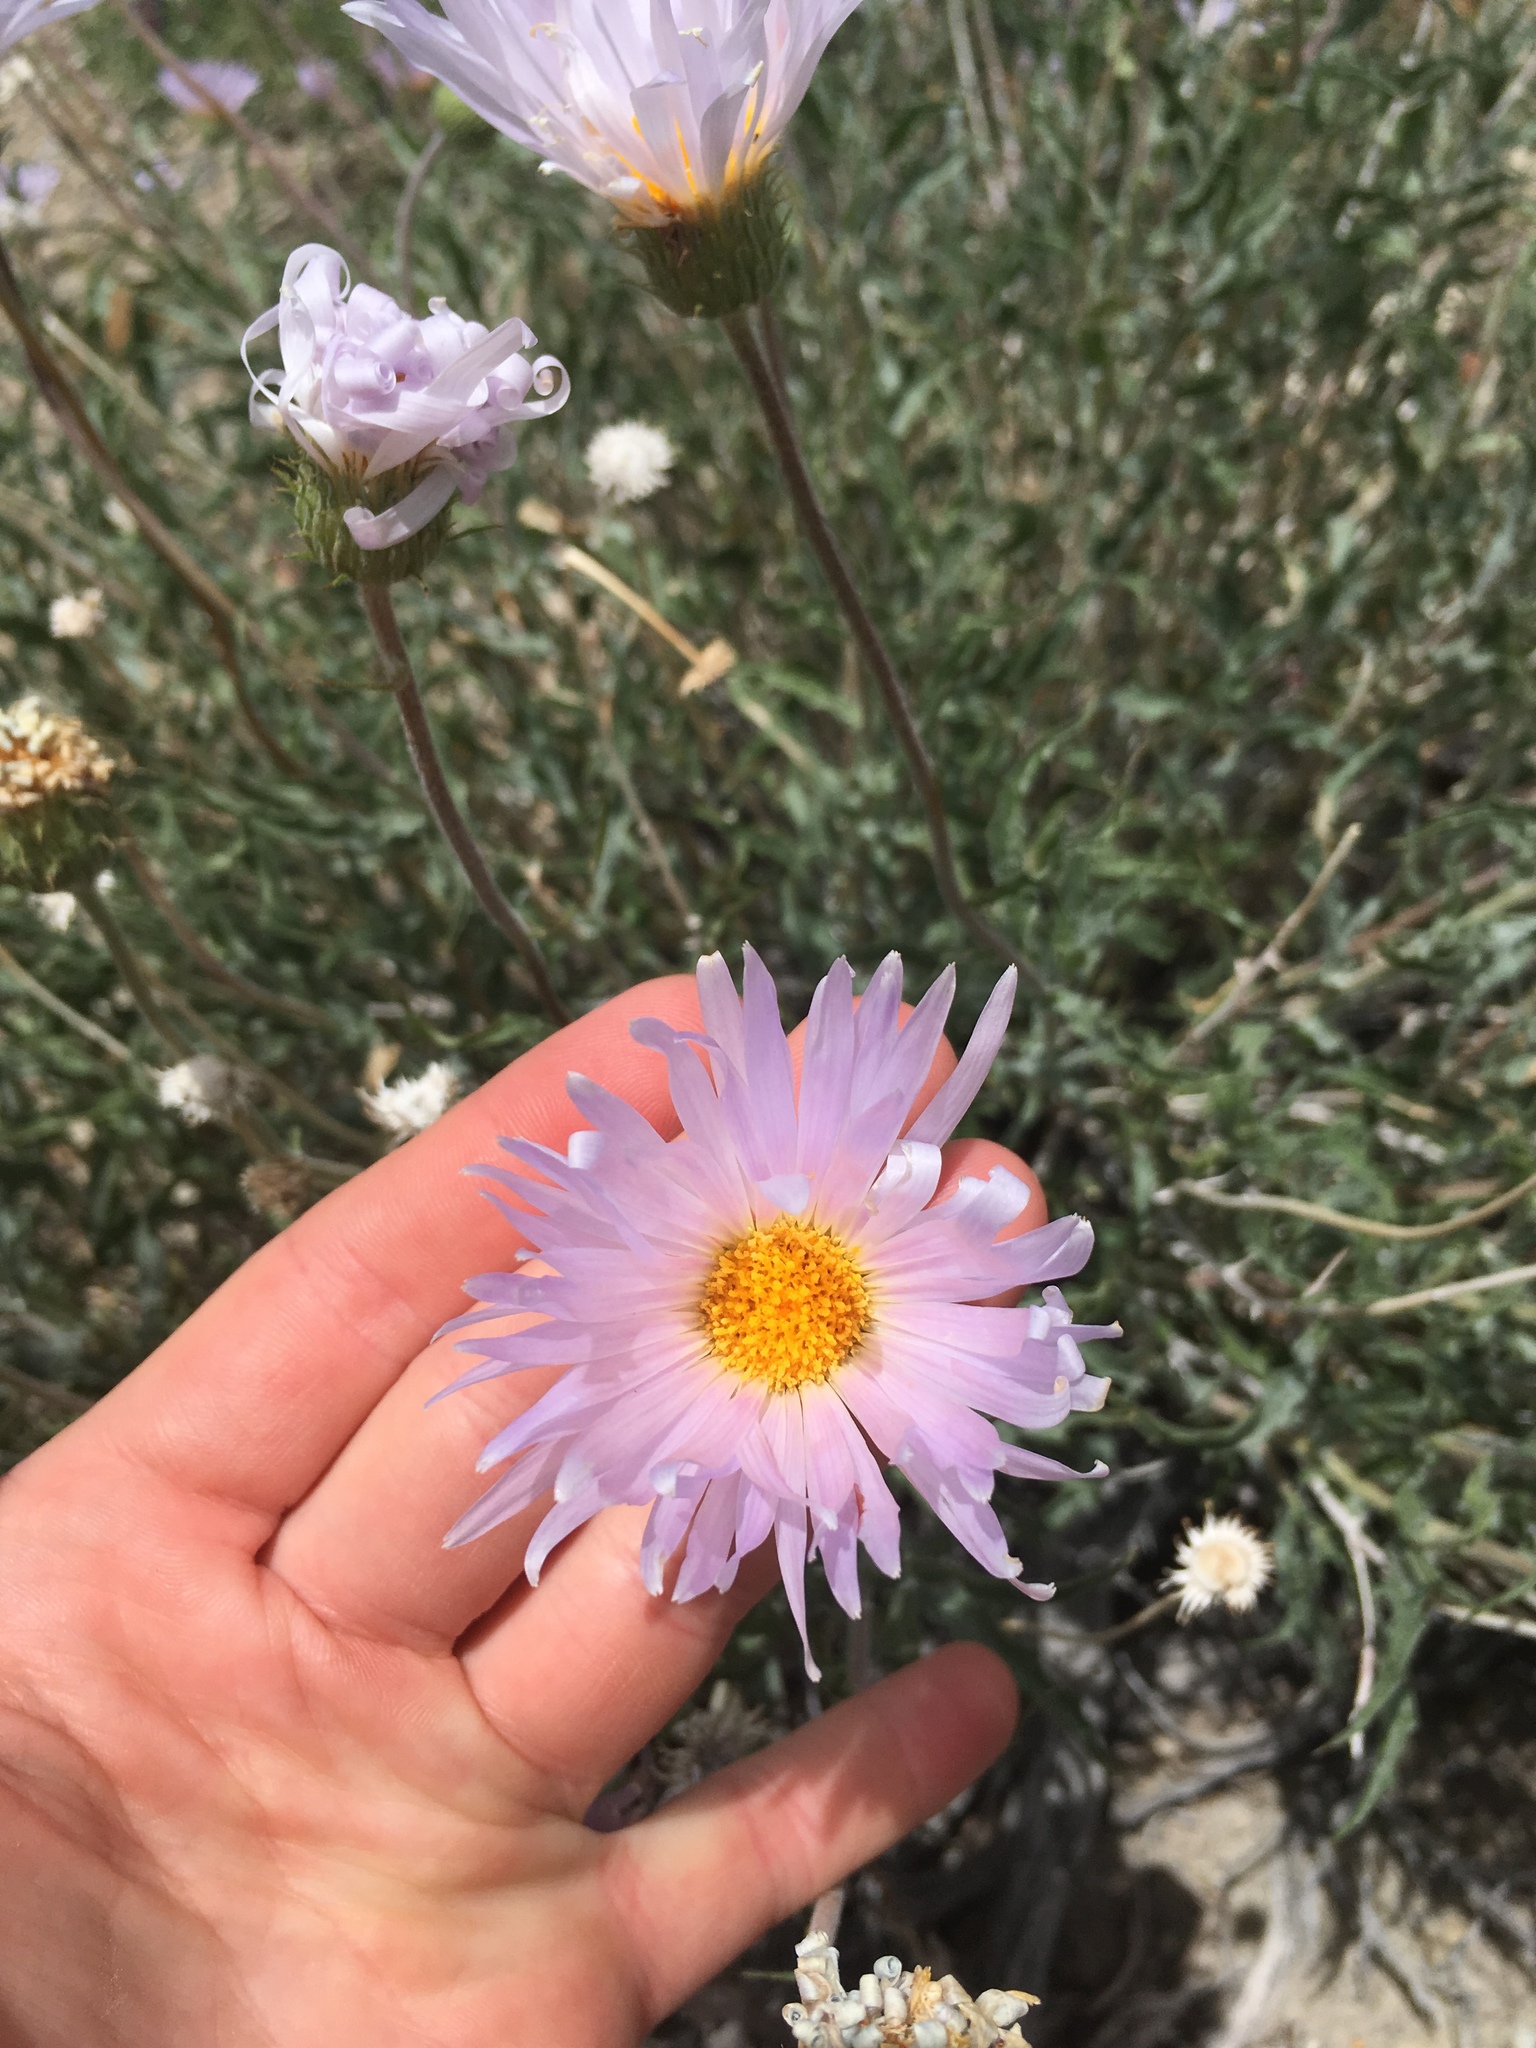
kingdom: Plantae
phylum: Tracheophyta
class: Magnoliopsida
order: Asterales
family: Asteraceae
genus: Xylorhiza
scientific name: Xylorhiza tortifolia
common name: Hurt-leaf woody-aster
